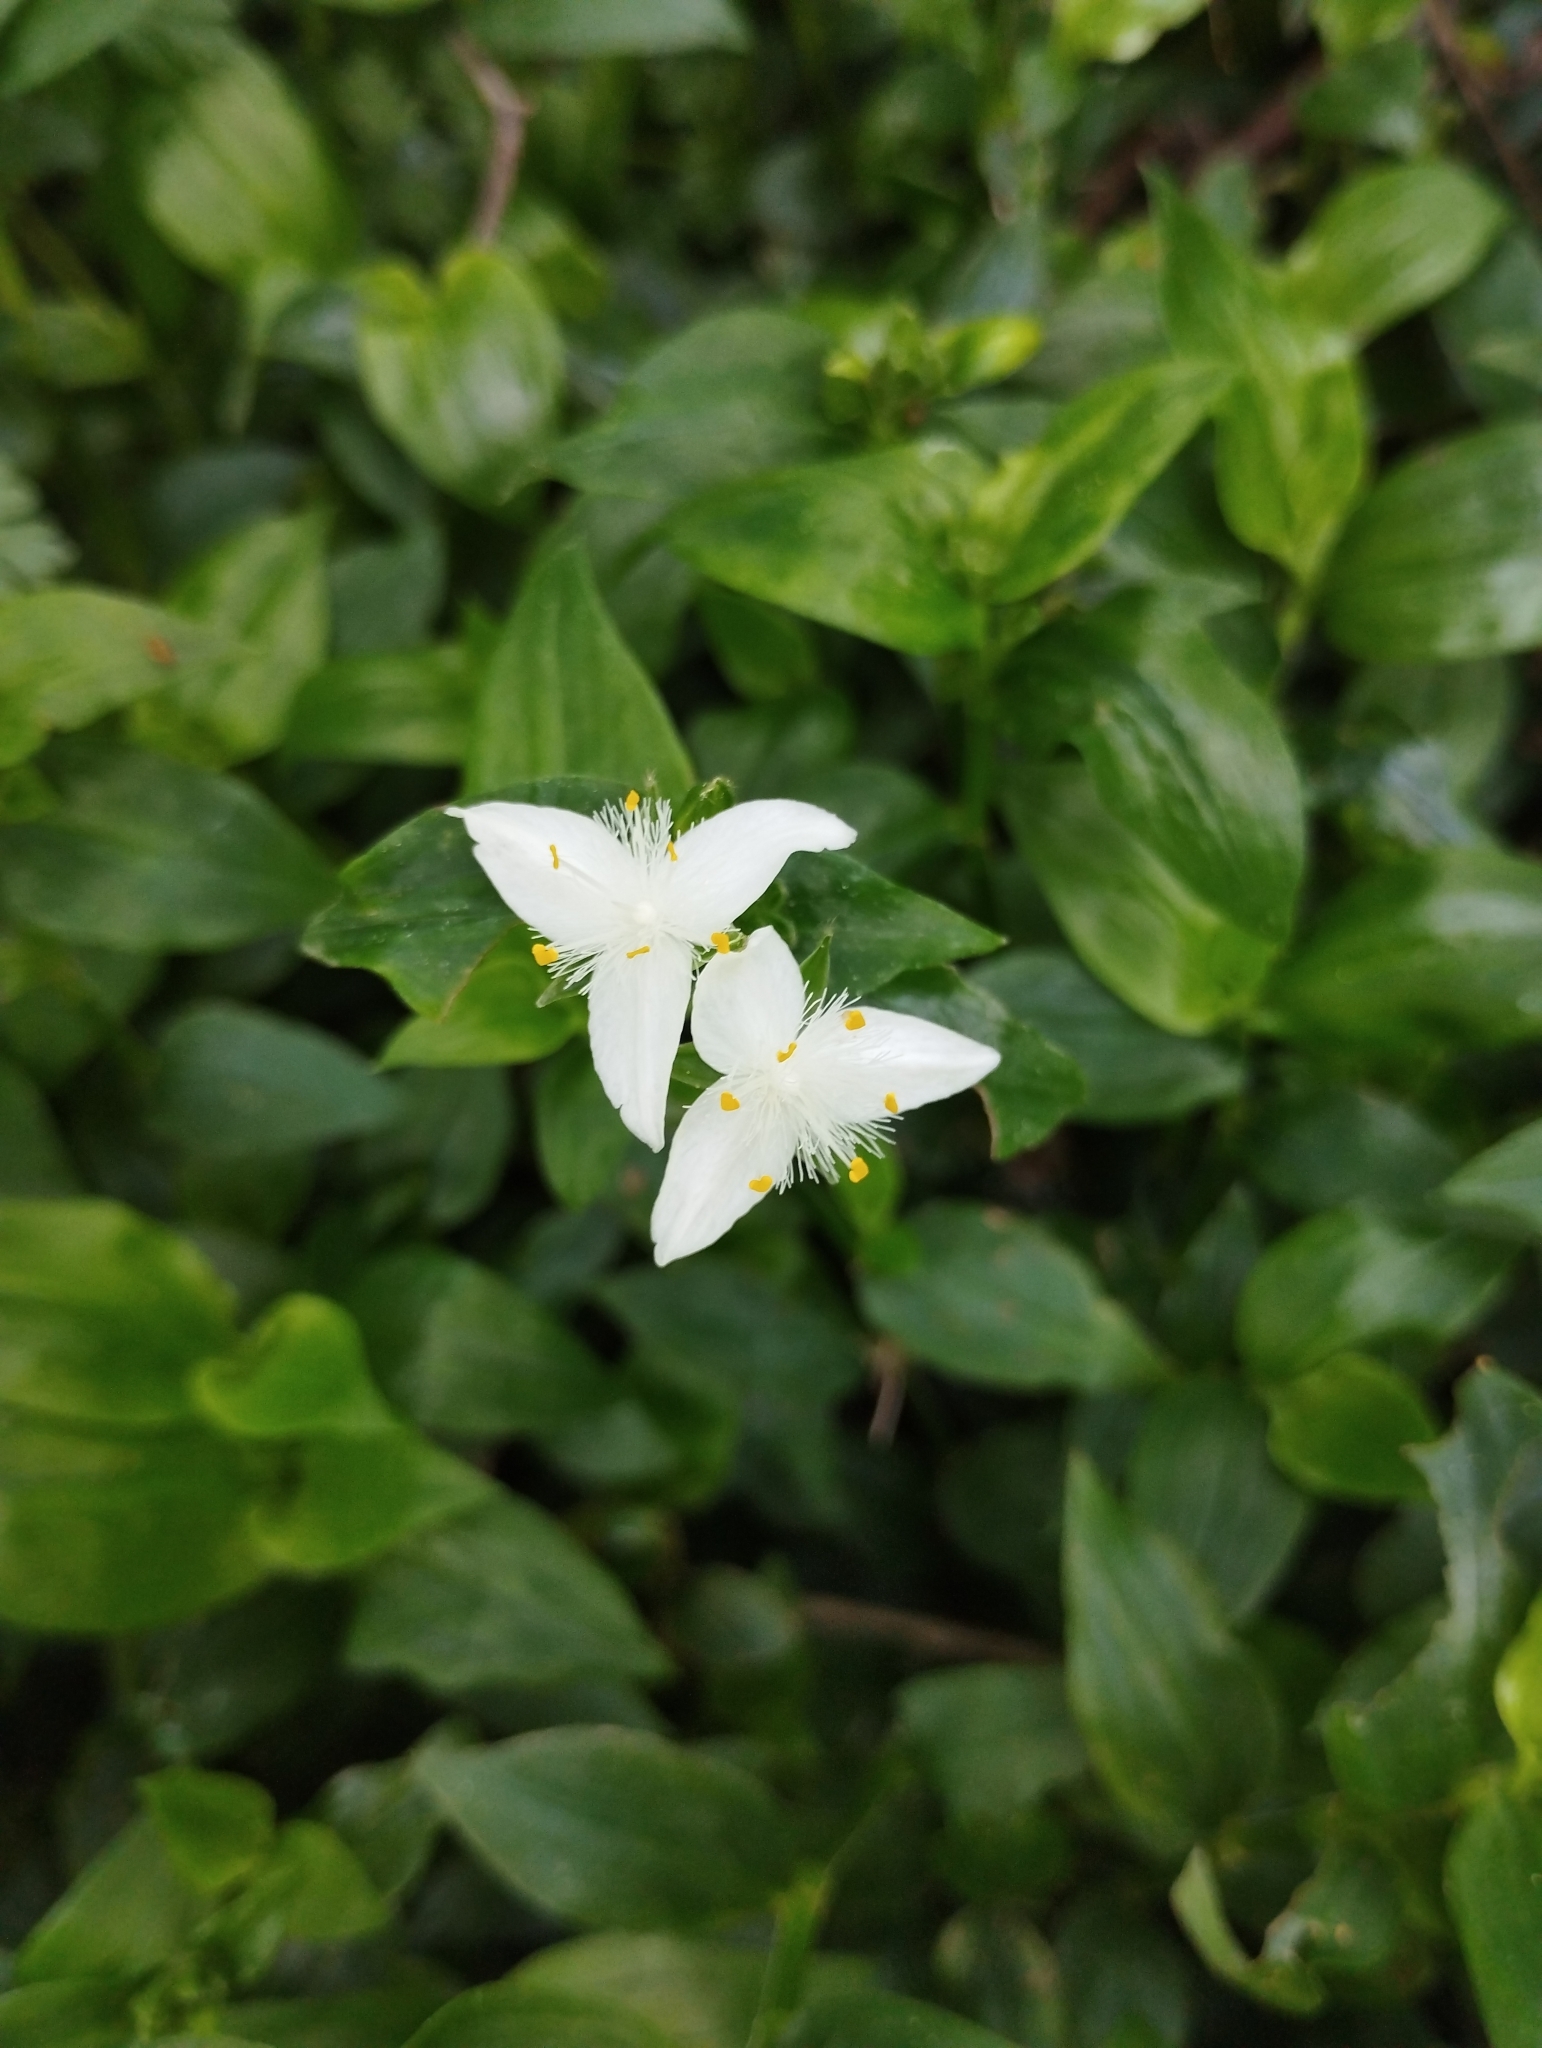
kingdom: Plantae
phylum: Tracheophyta
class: Liliopsida
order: Commelinales
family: Commelinaceae
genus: Tradescantia
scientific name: Tradescantia fluminensis
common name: Wandering-jew
